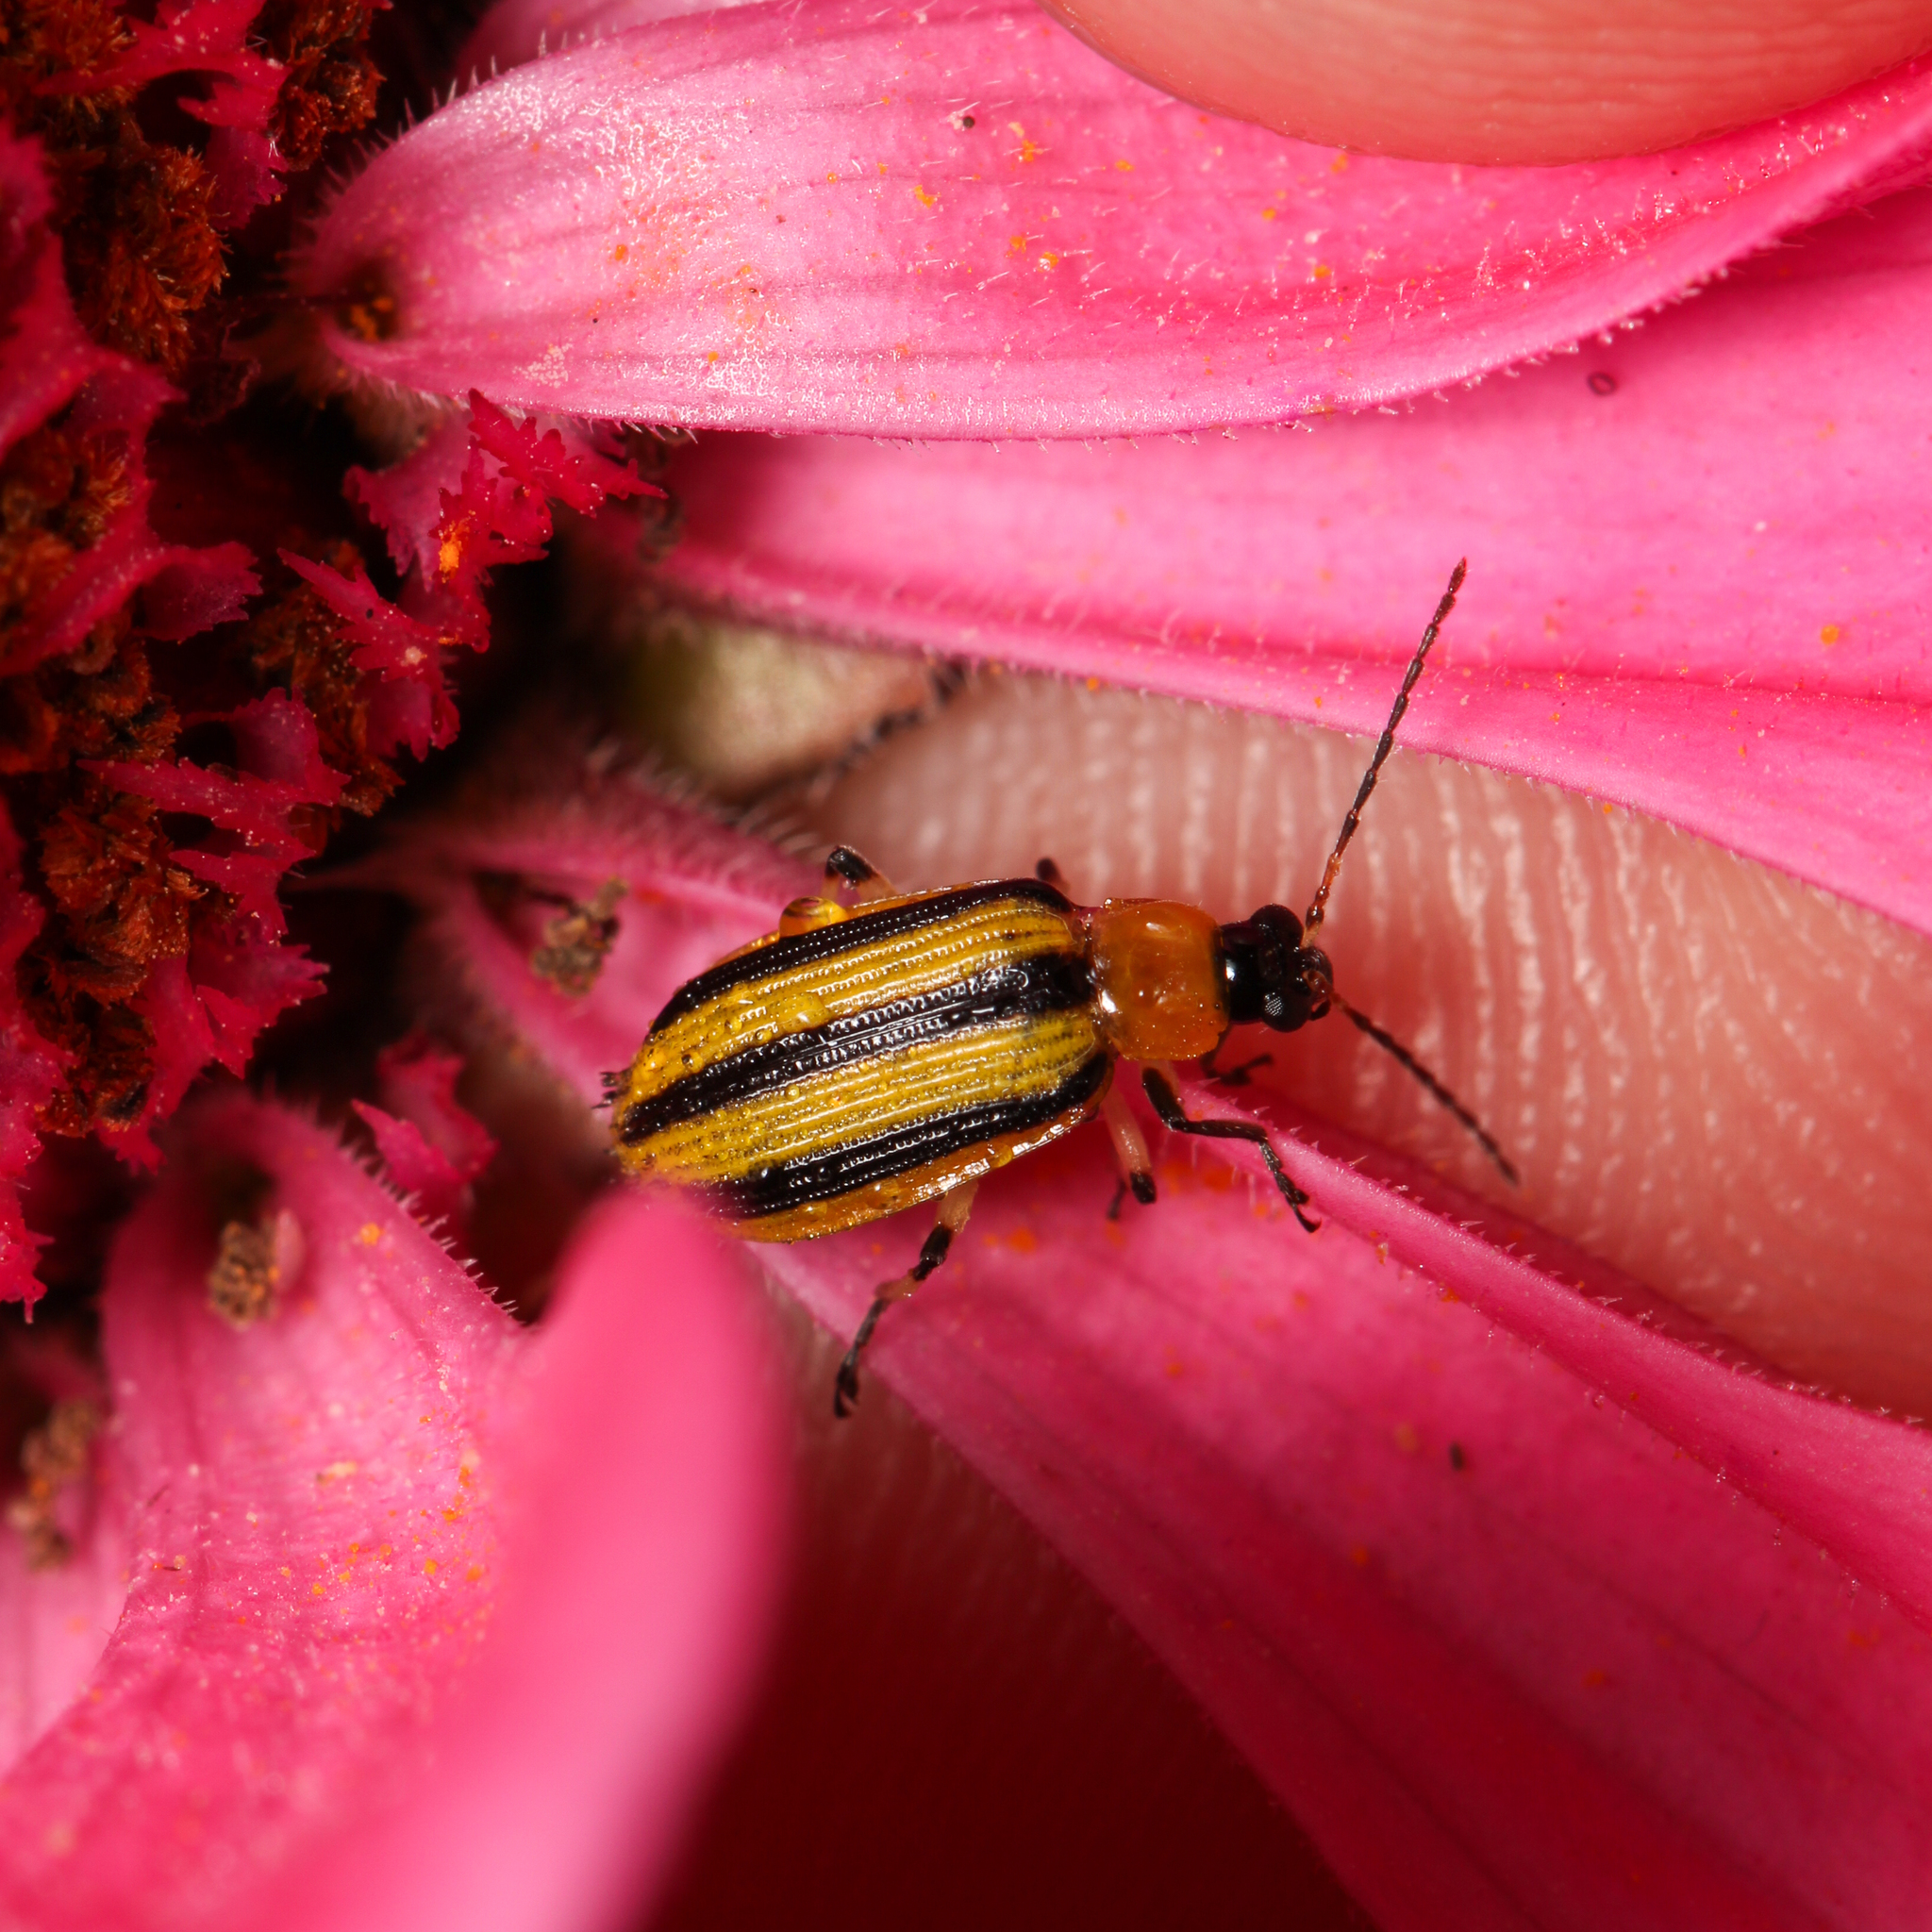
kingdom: Animalia
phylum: Arthropoda
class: Insecta
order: Coleoptera
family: Chrysomelidae
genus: Acalymma
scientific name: Acalymma vittatum
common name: Striped cucumber beetle
